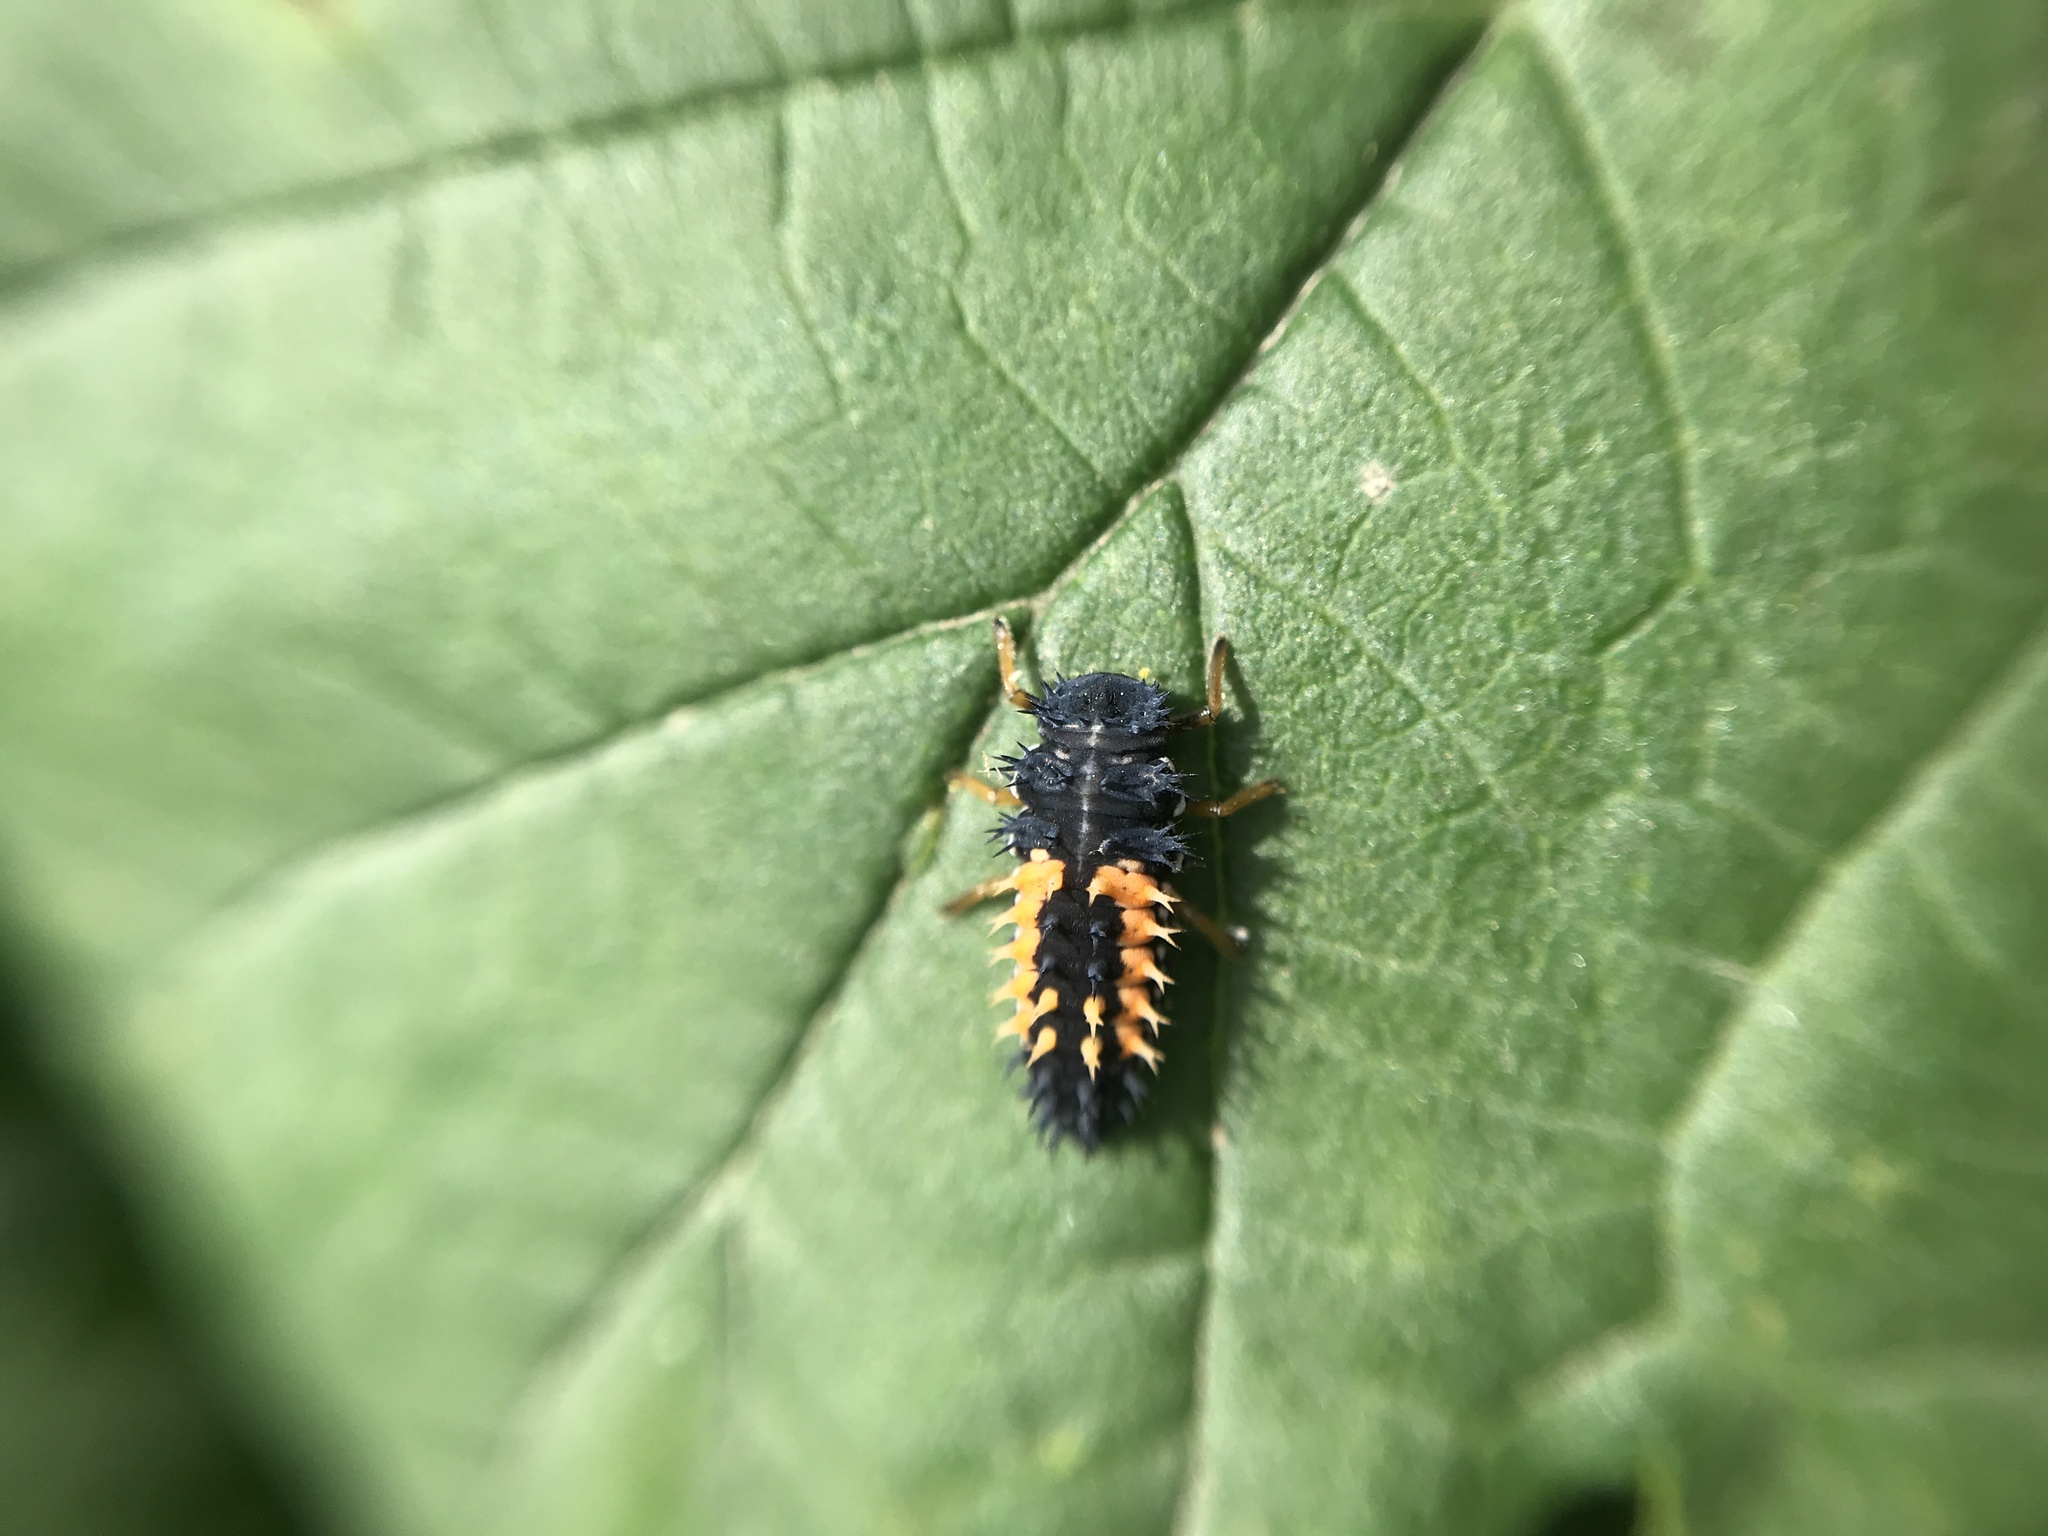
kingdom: Animalia
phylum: Arthropoda
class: Insecta
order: Coleoptera
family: Coccinellidae
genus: Harmonia
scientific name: Harmonia axyridis
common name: Harlequin ladybird
